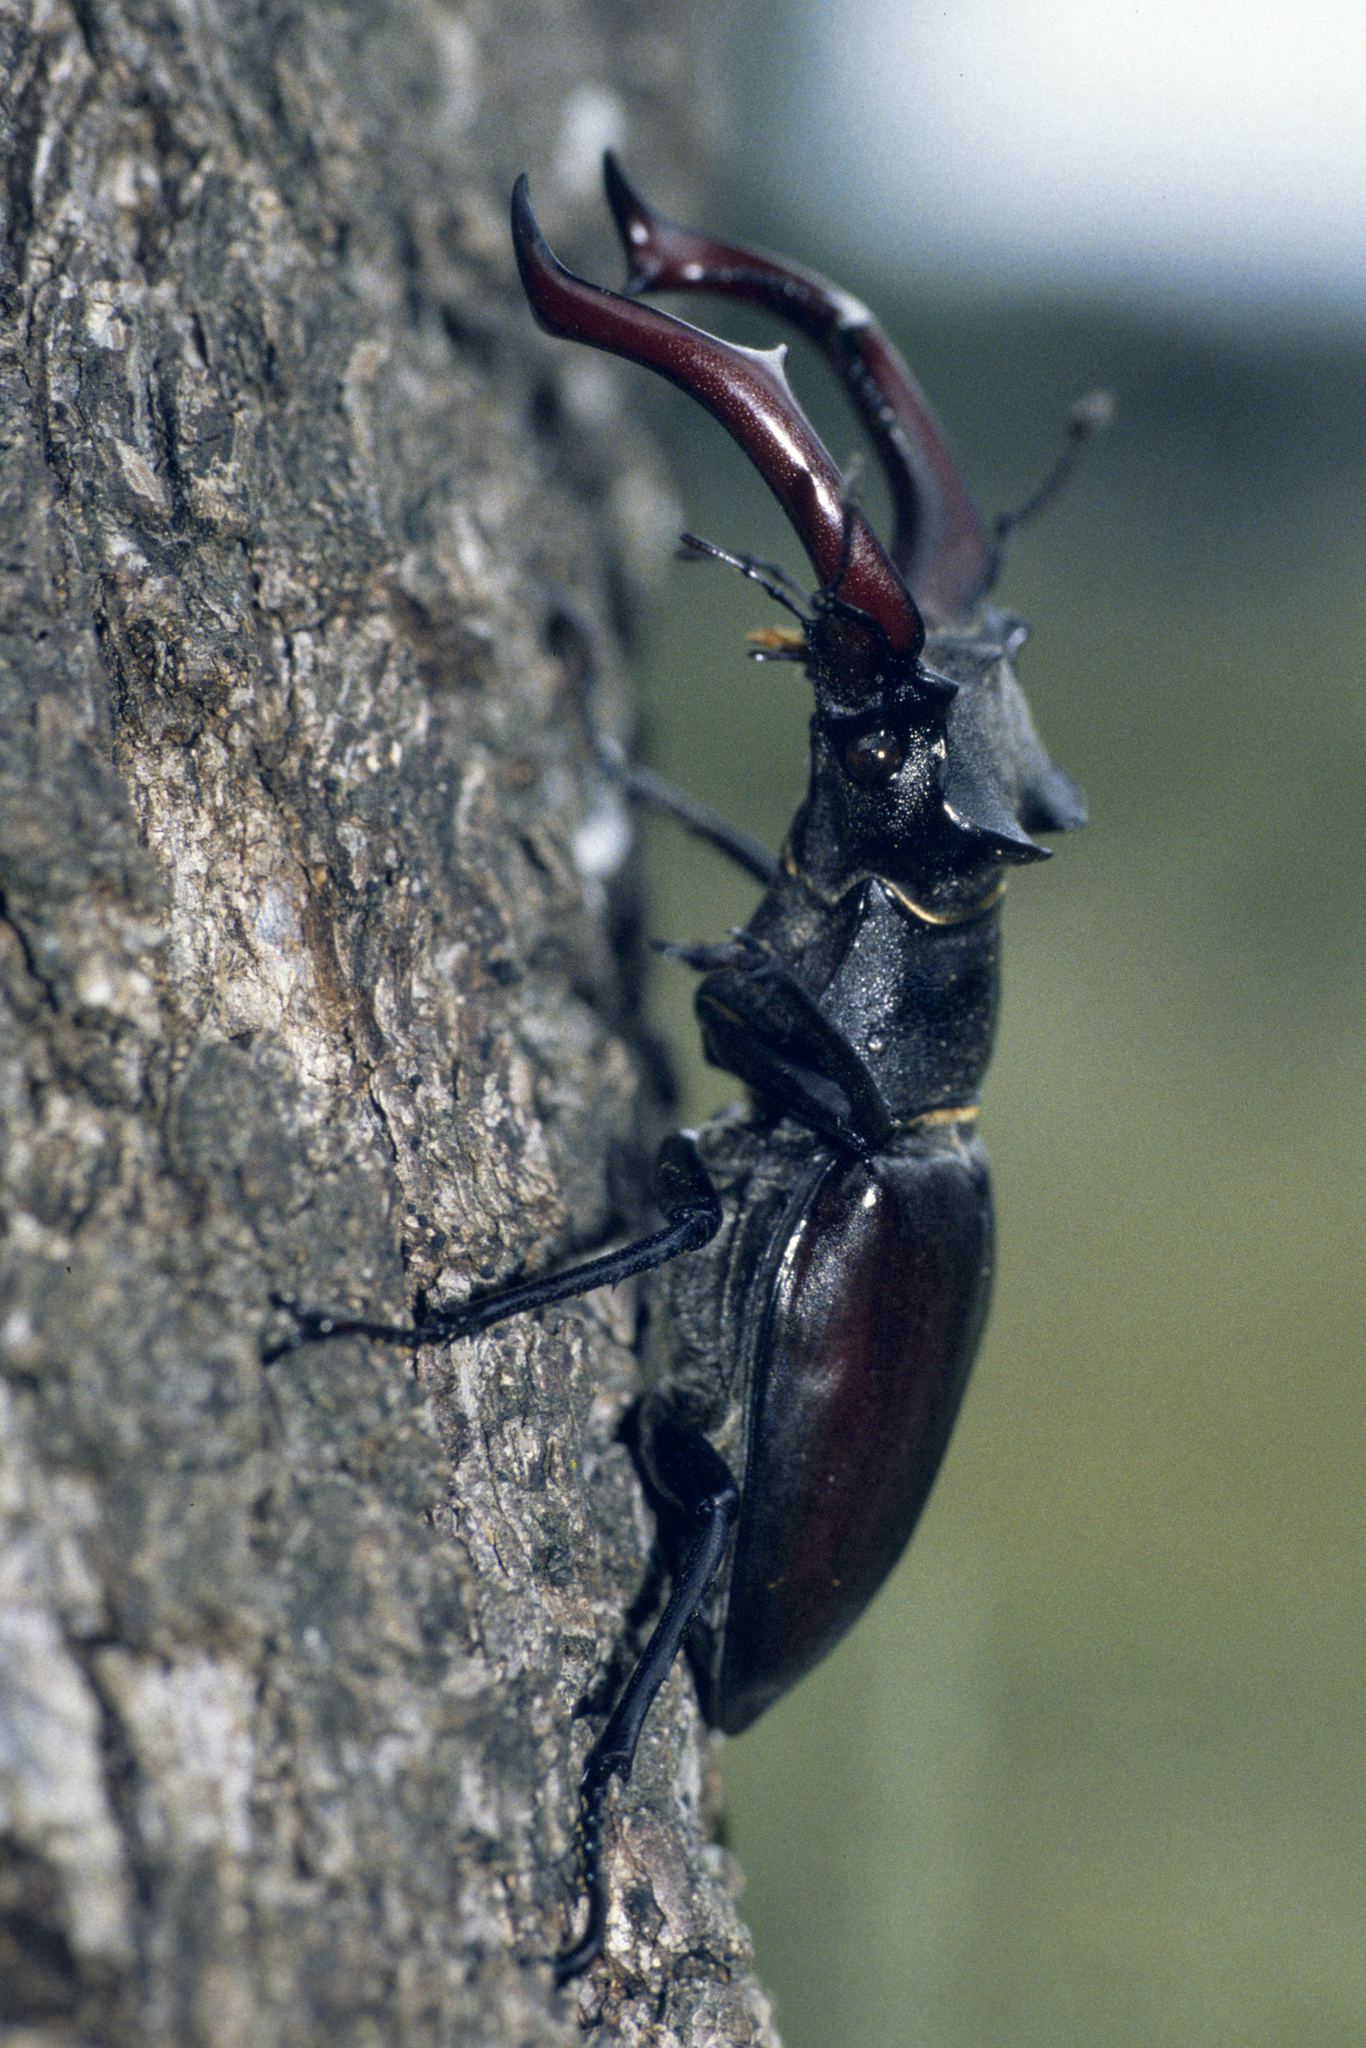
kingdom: Animalia
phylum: Arthropoda
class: Insecta
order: Coleoptera
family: Lucanidae
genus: Lucanus
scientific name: Lucanus cervus
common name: Stag beetle
